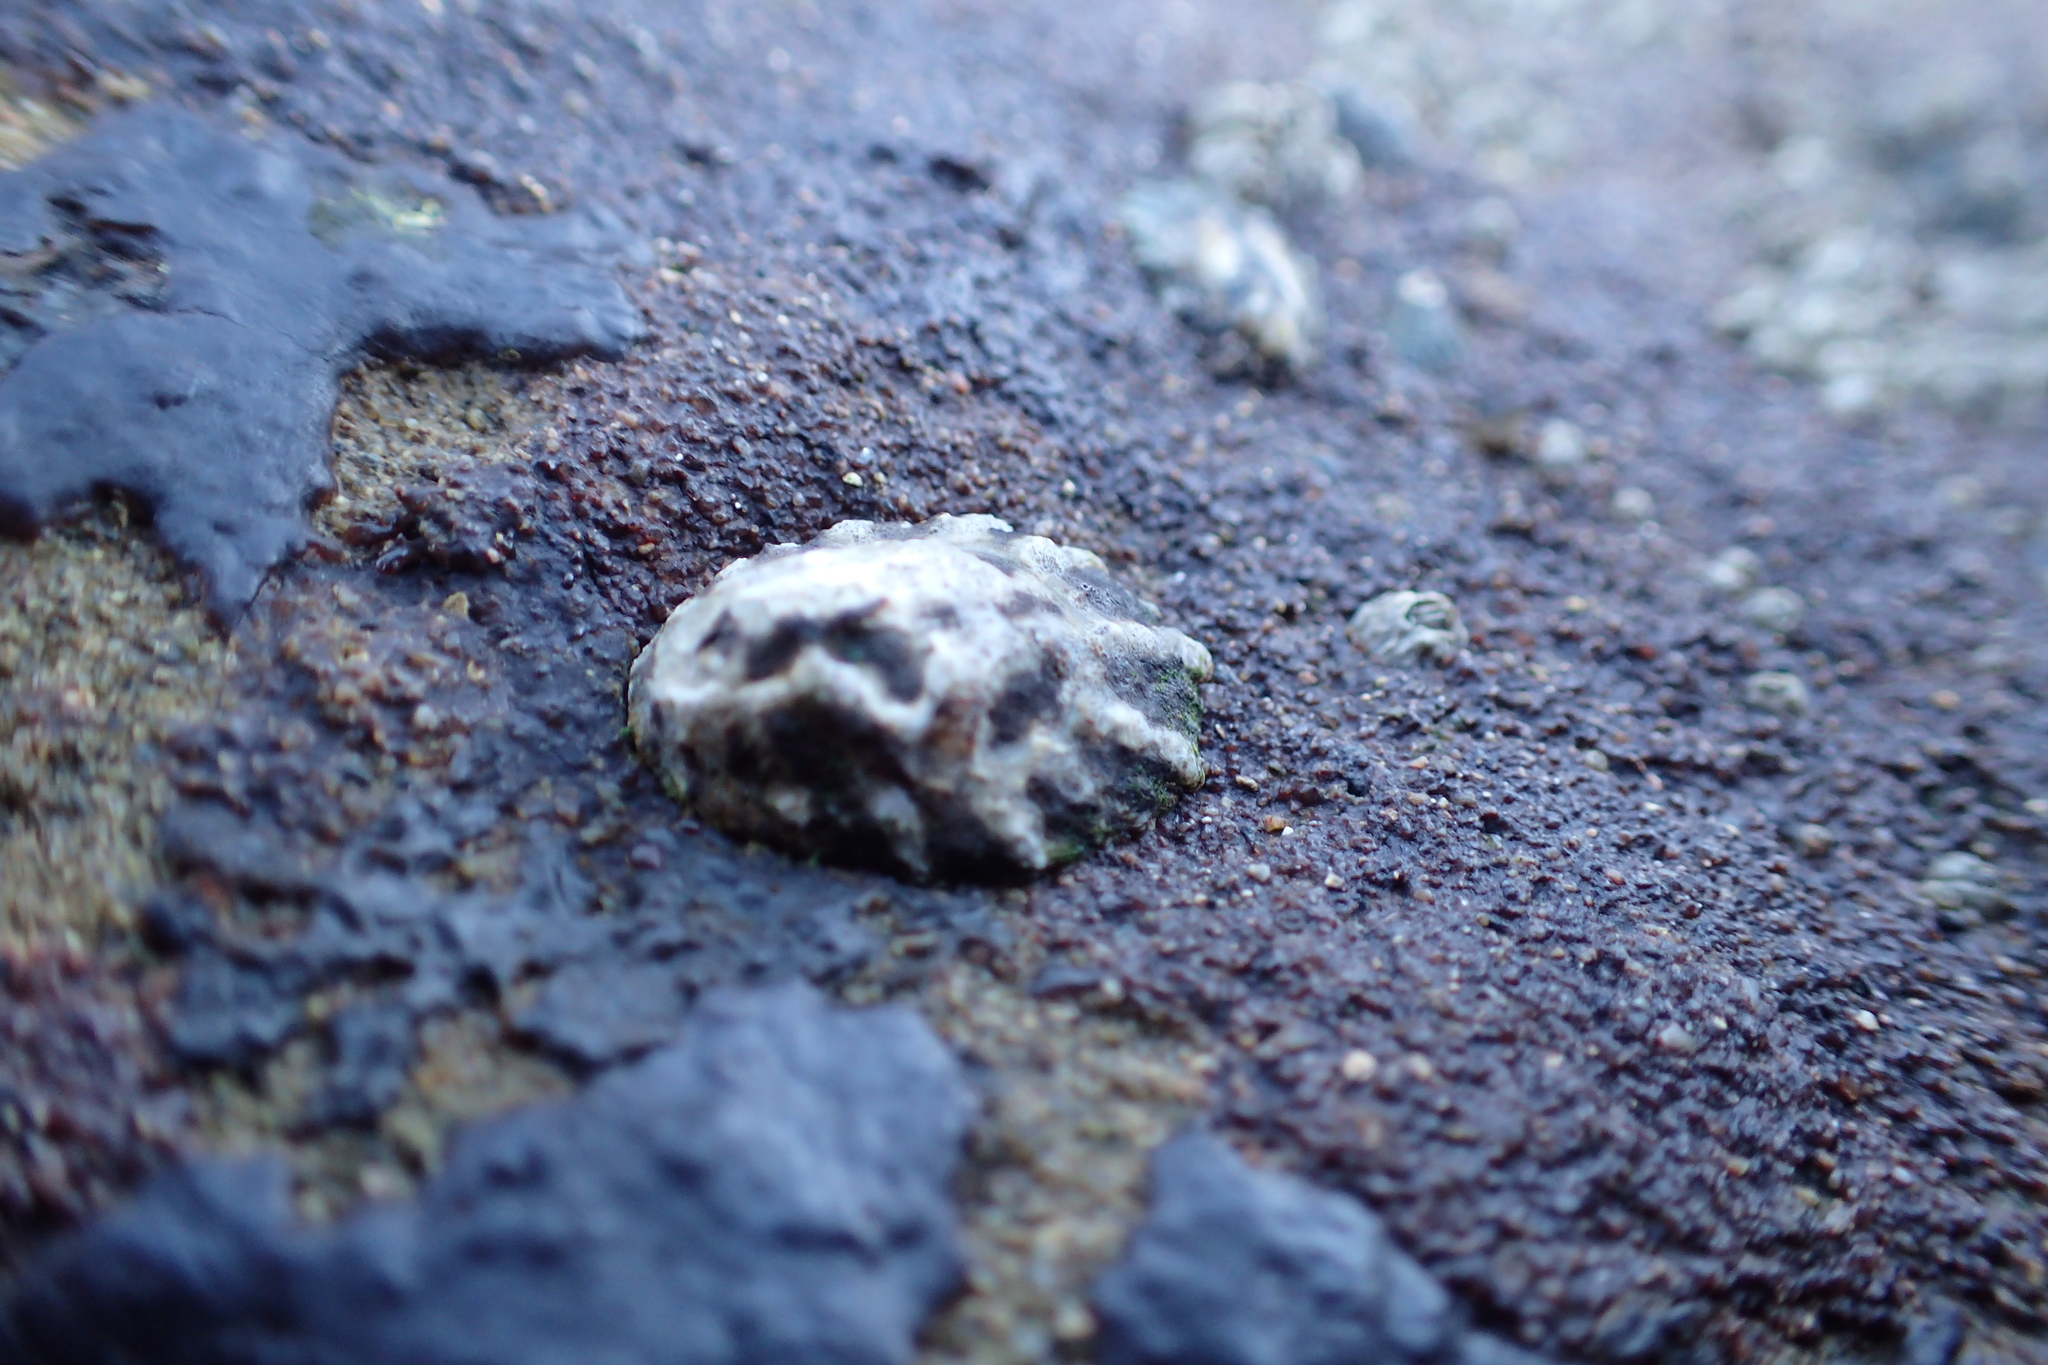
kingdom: Animalia
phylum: Mollusca
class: Gastropoda
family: Lottiidae
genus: Lottia
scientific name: Lottia scabra
